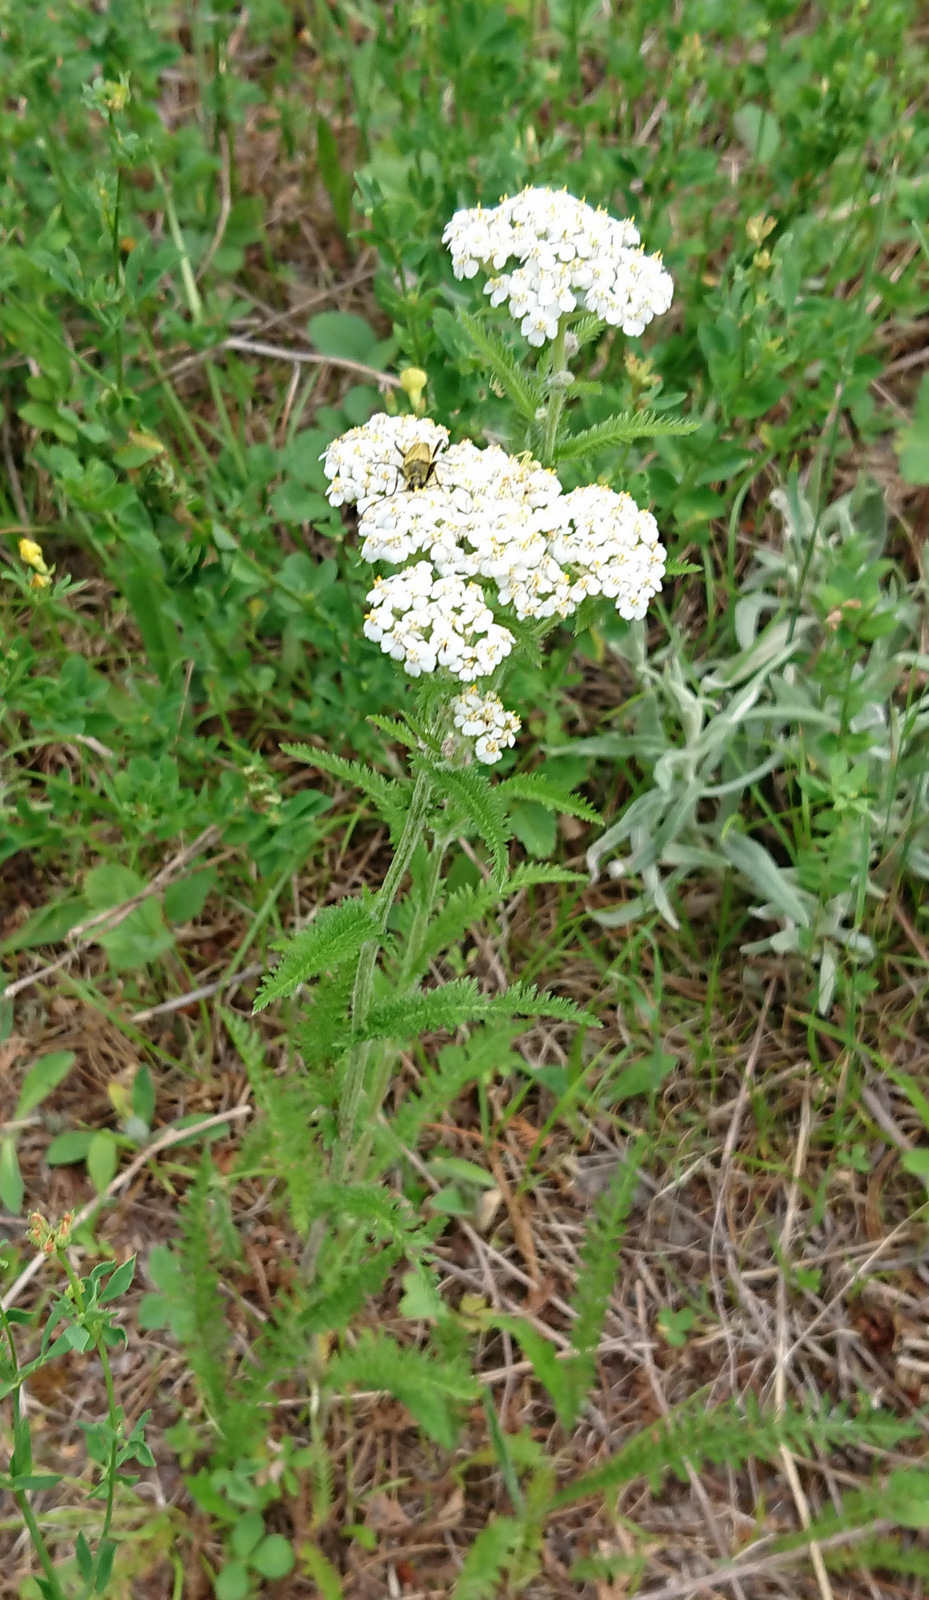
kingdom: Plantae
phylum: Tracheophyta
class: Magnoliopsida
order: Asterales
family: Asteraceae
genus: Achillea
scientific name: Achillea millefolium
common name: Yarrow
